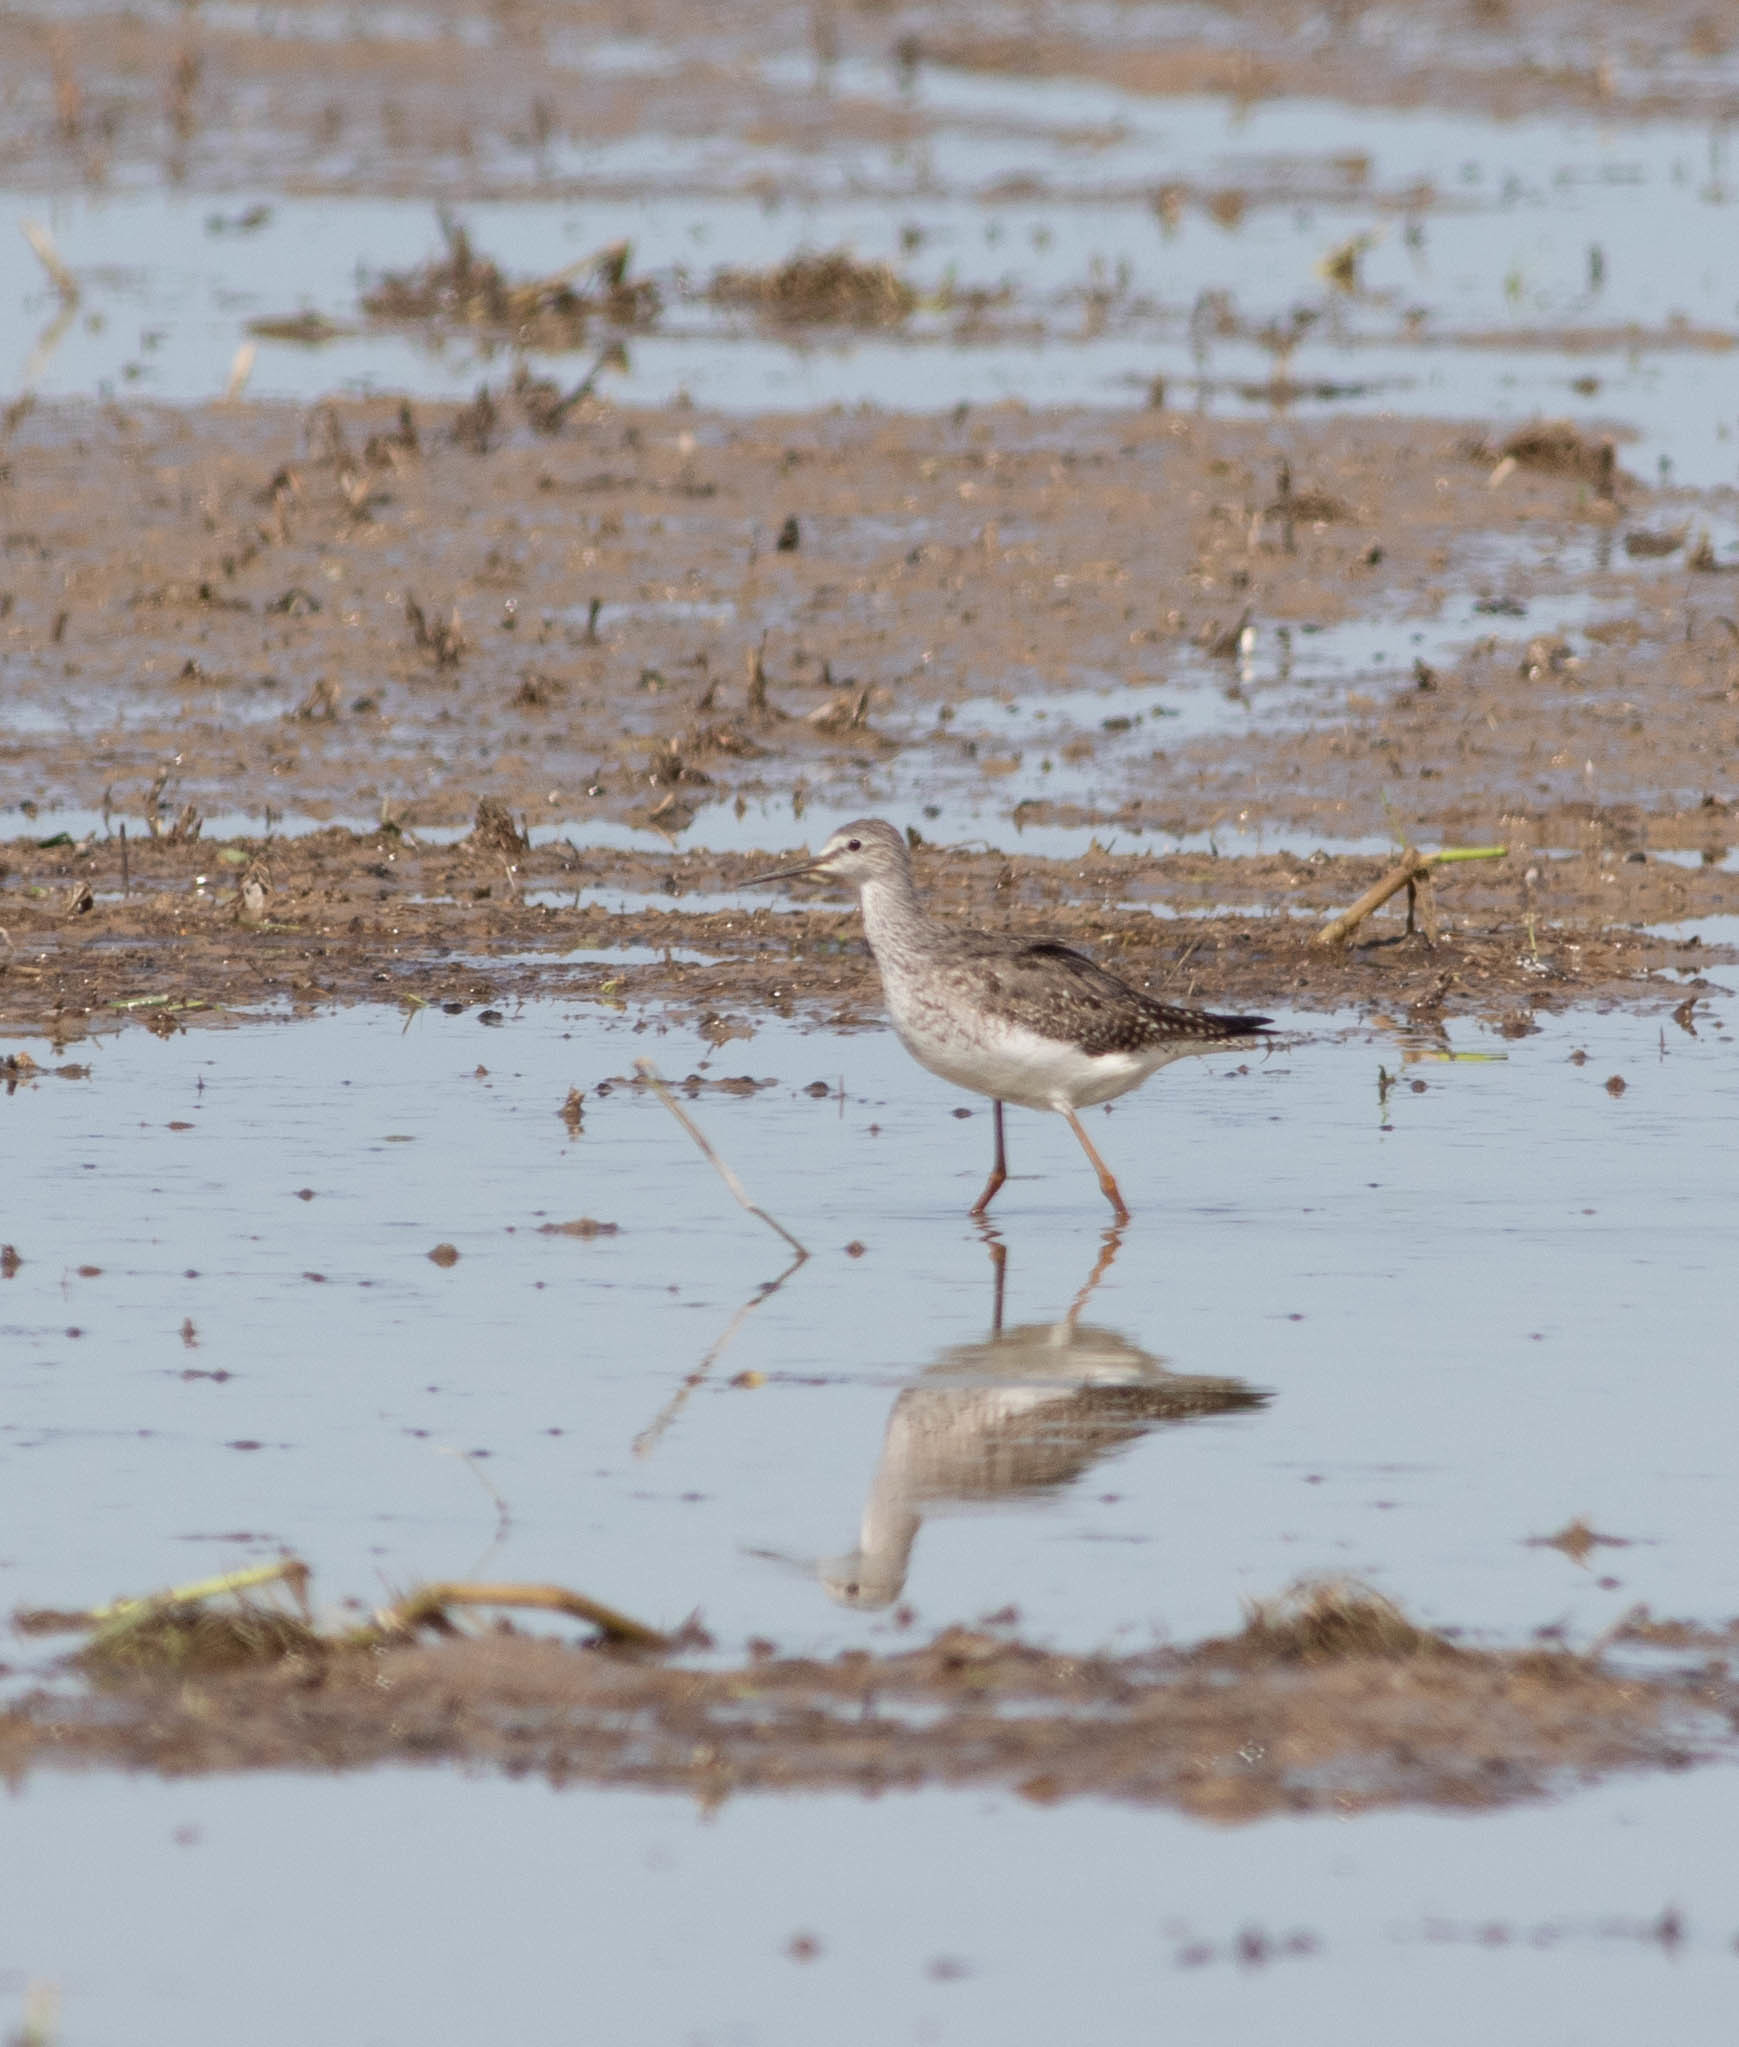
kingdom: Animalia
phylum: Chordata
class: Aves
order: Charadriiformes
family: Scolopacidae
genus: Tringa
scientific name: Tringa flavipes
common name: Lesser yellowlegs
